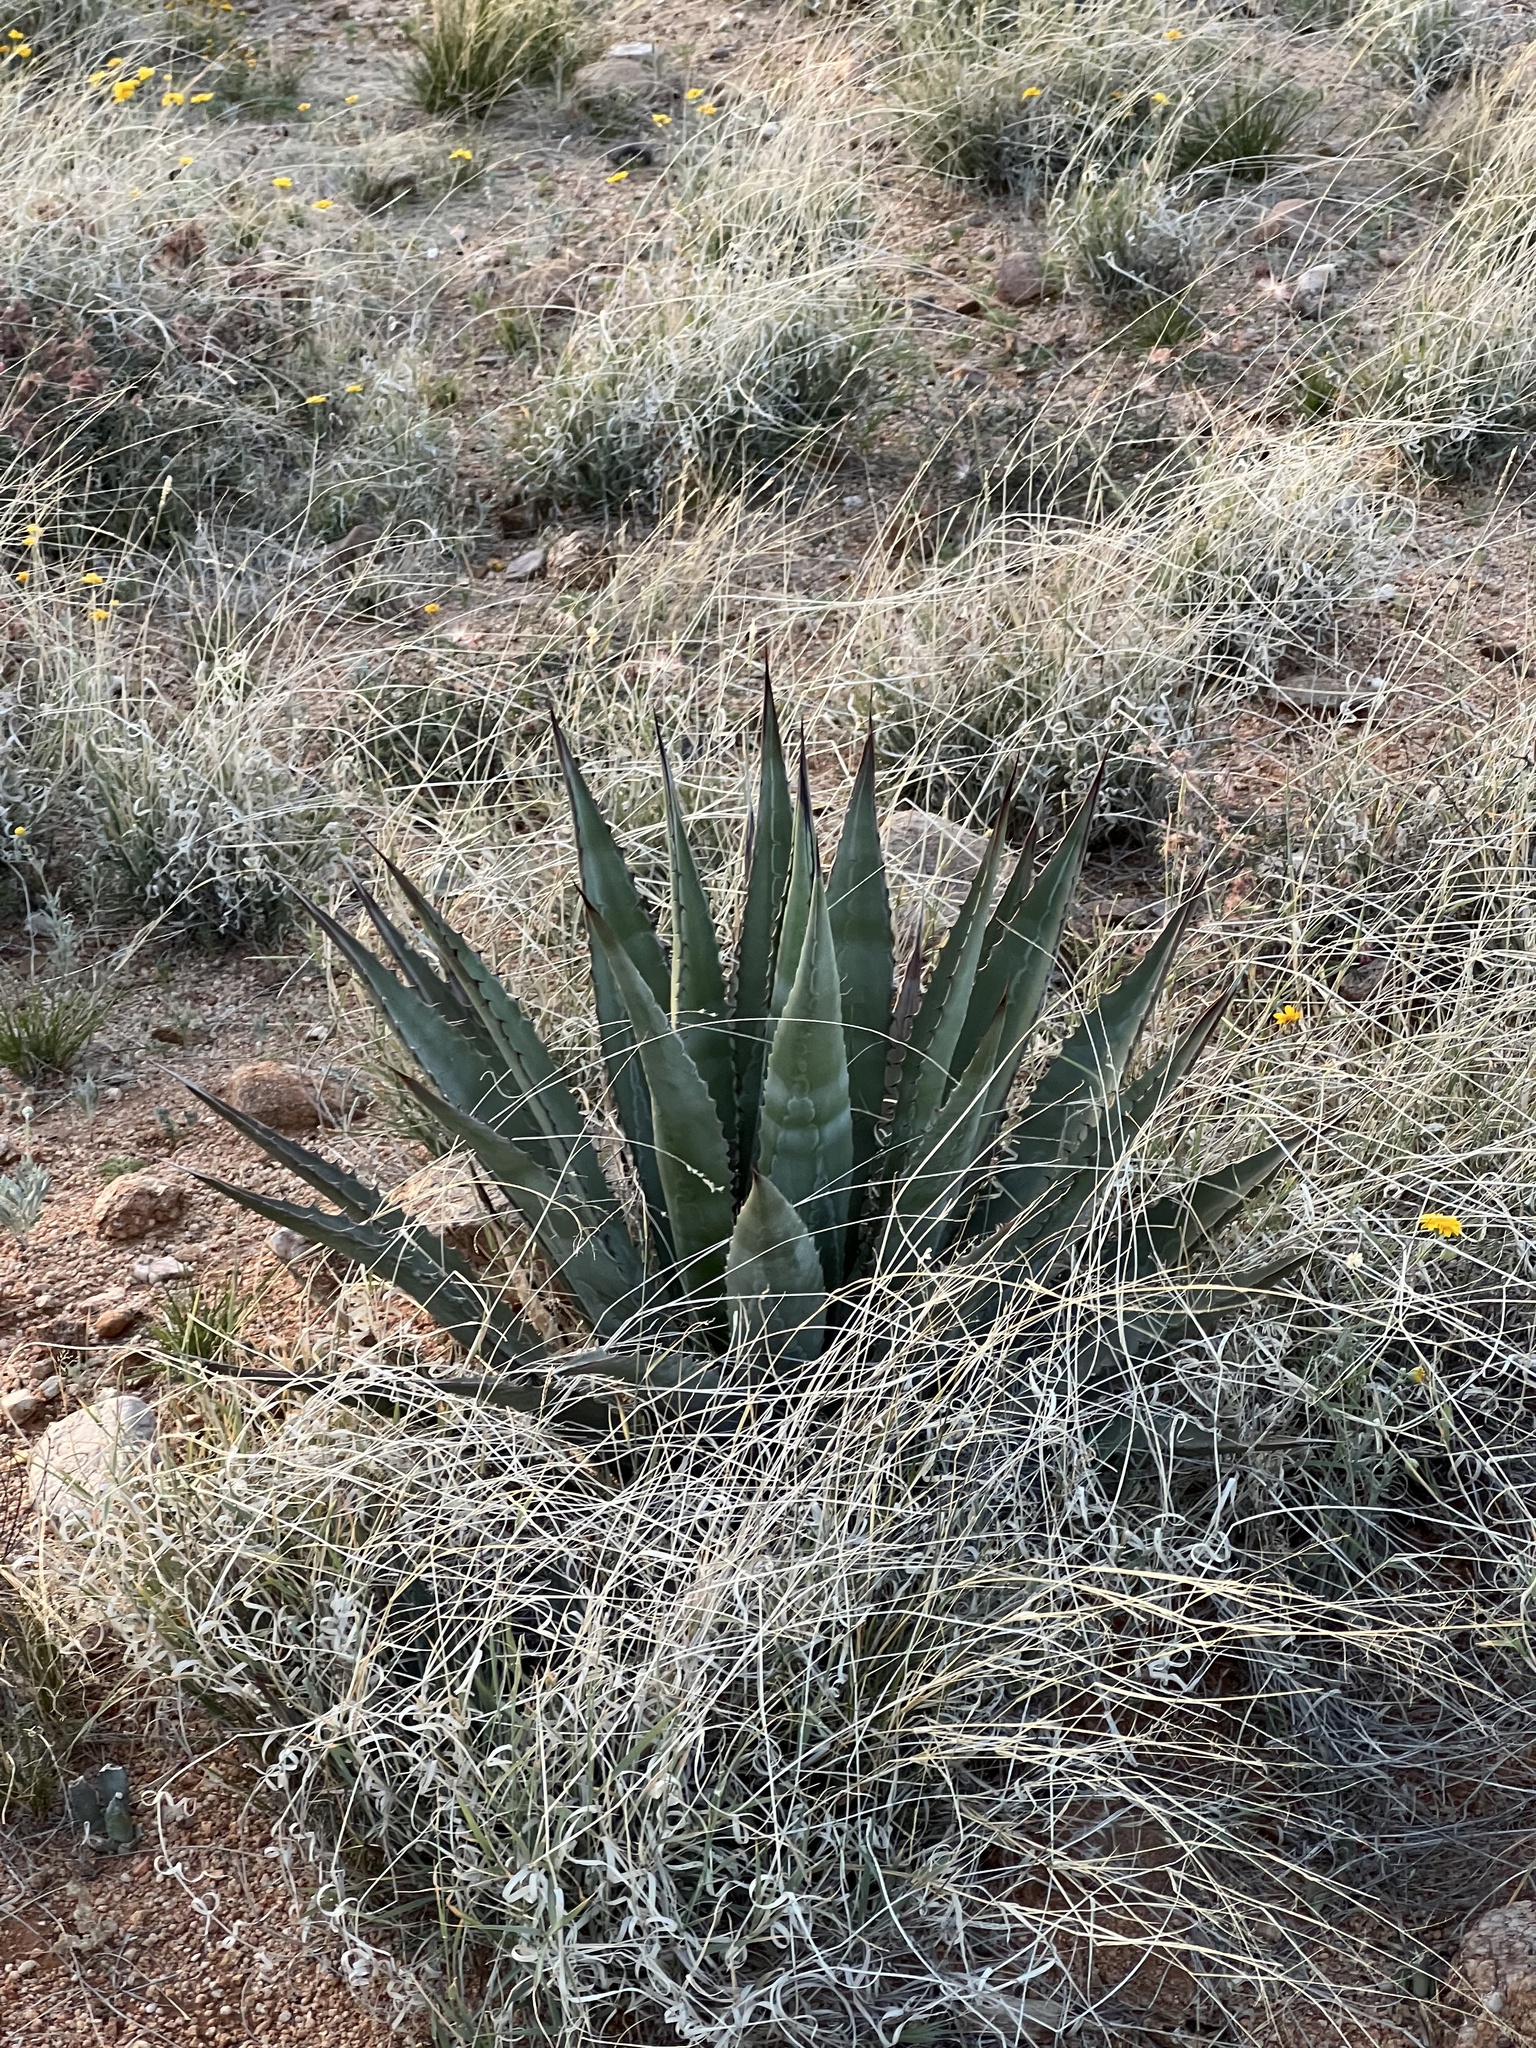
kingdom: Plantae
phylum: Tracheophyta
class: Liliopsida
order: Asparagales
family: Asparagaceae
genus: Agave
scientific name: Agave palmeri
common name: Palmer agave
